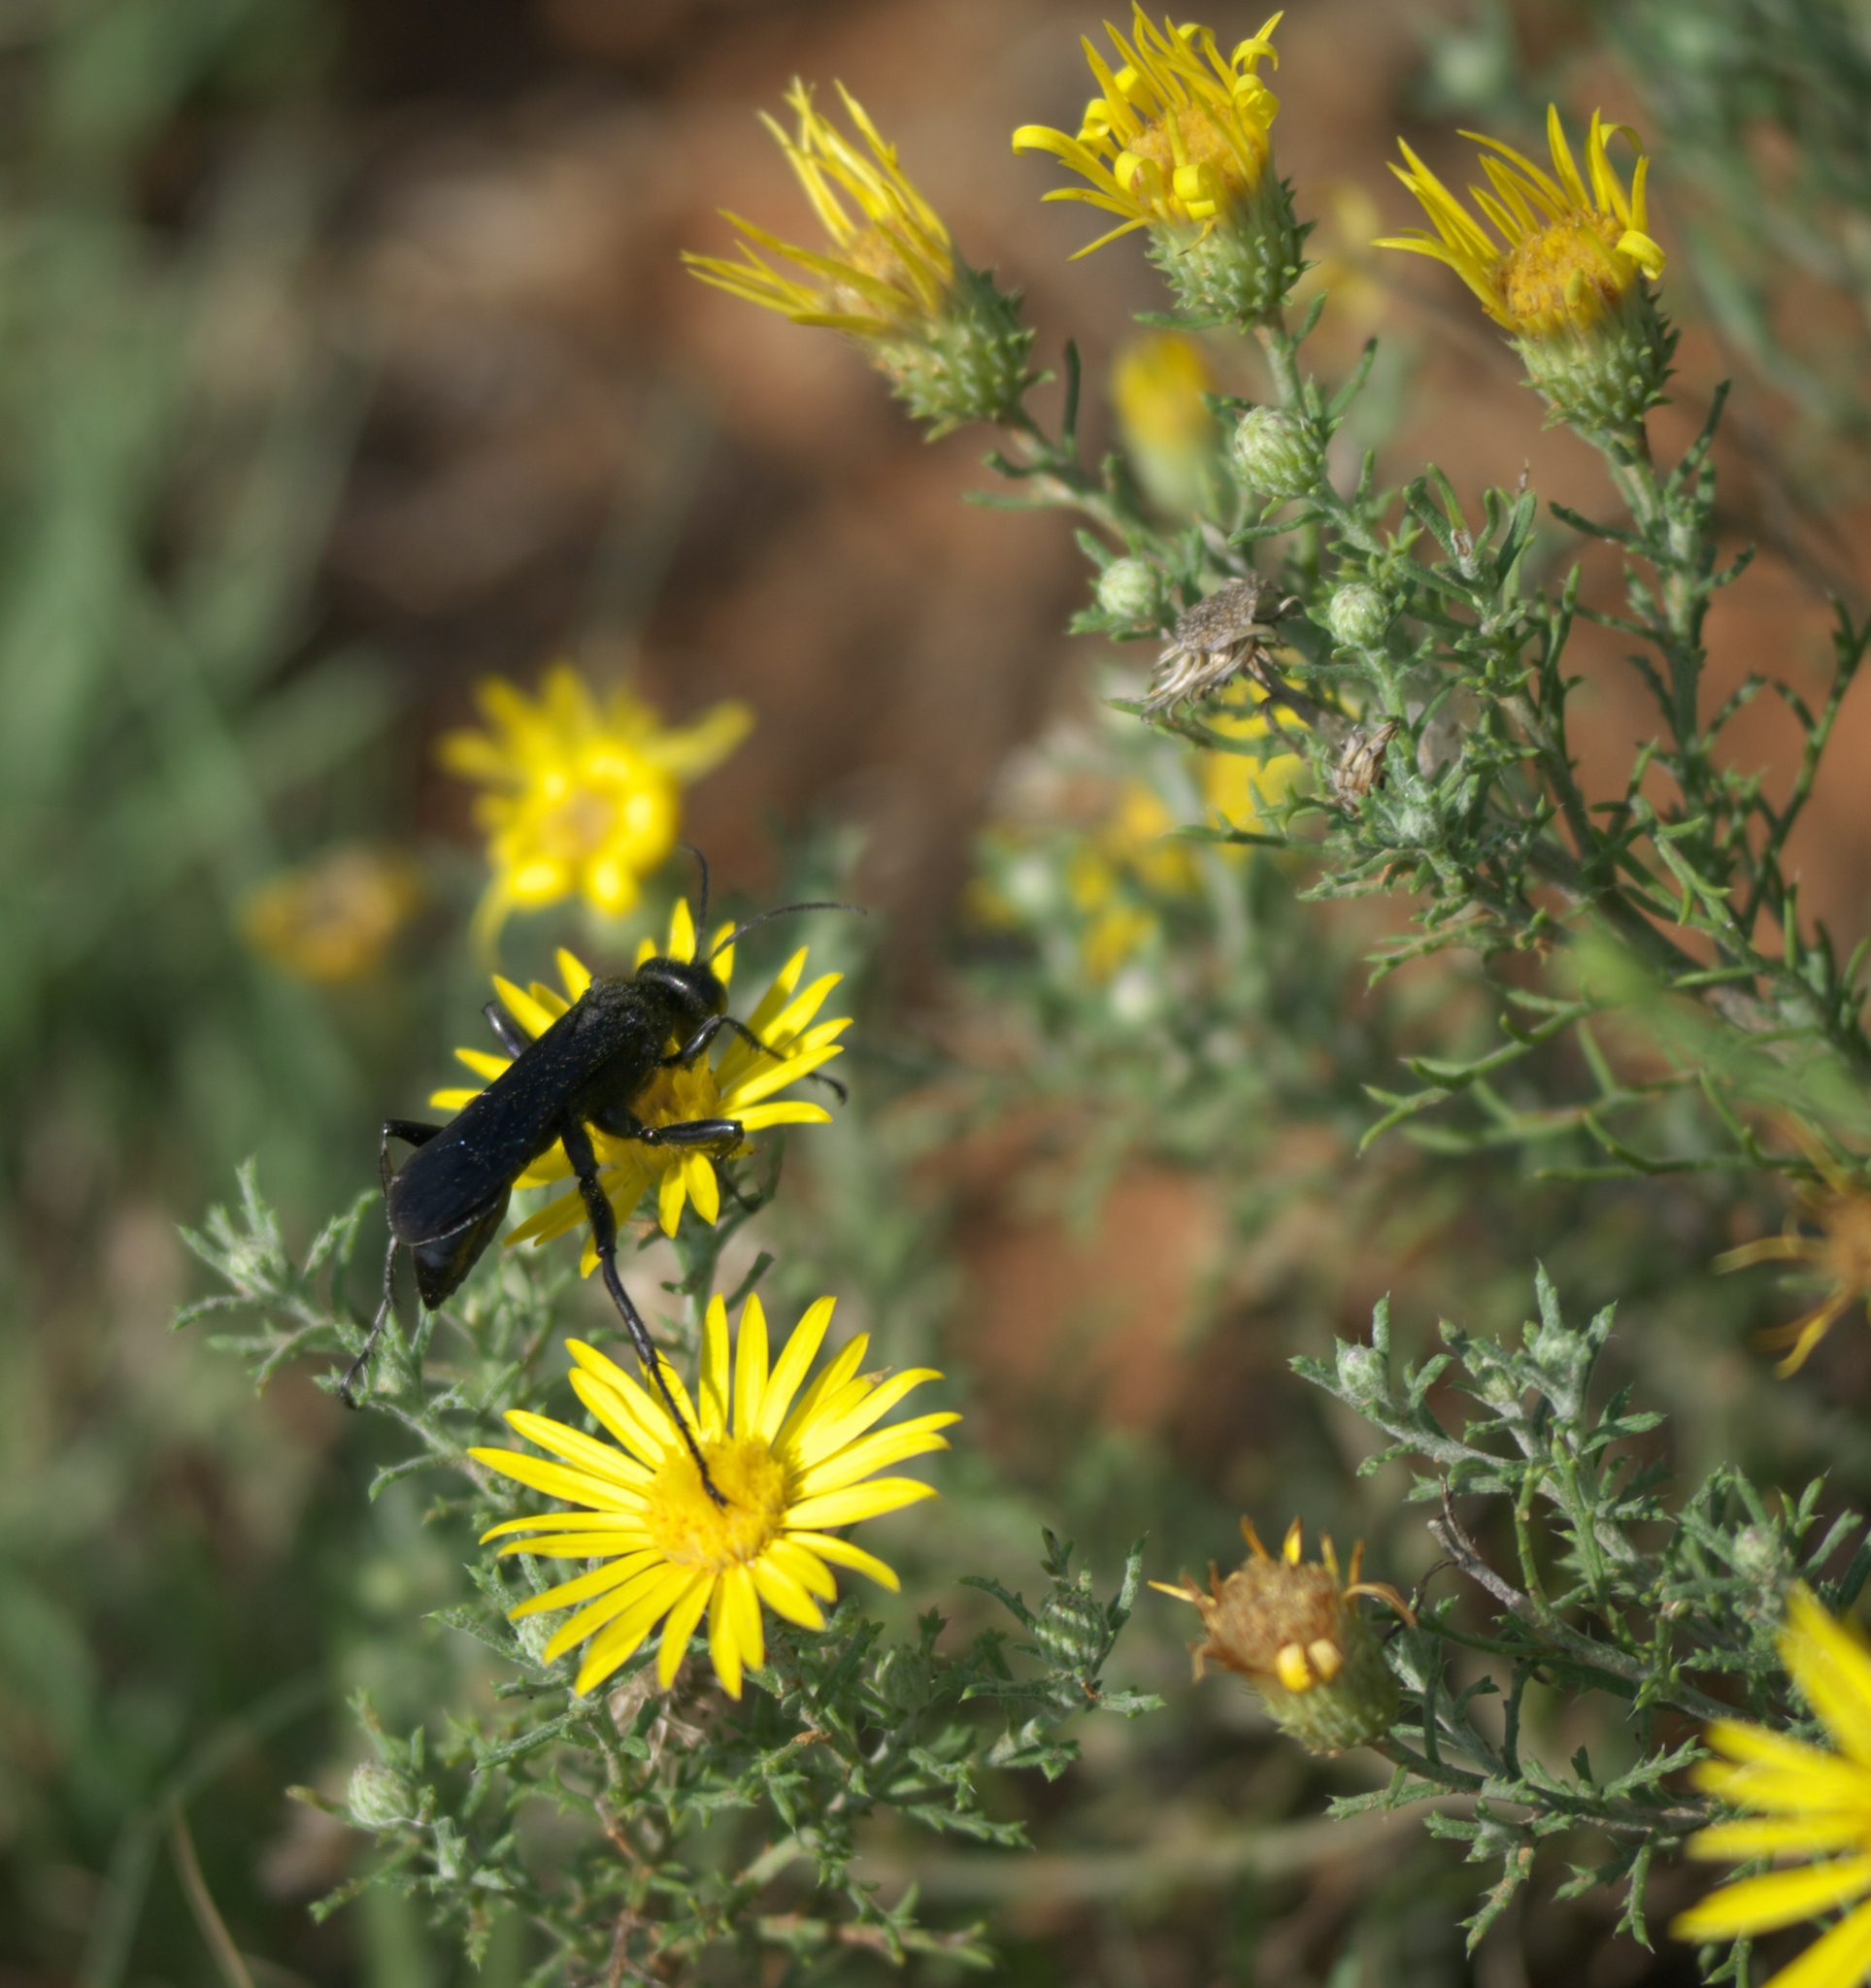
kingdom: Plantae
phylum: Tracheophyta
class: Magnoliopsida
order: Asterales
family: Asteraceae
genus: Xanthisma
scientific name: Xanthisma spinulosum
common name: Spiny goldenweed
